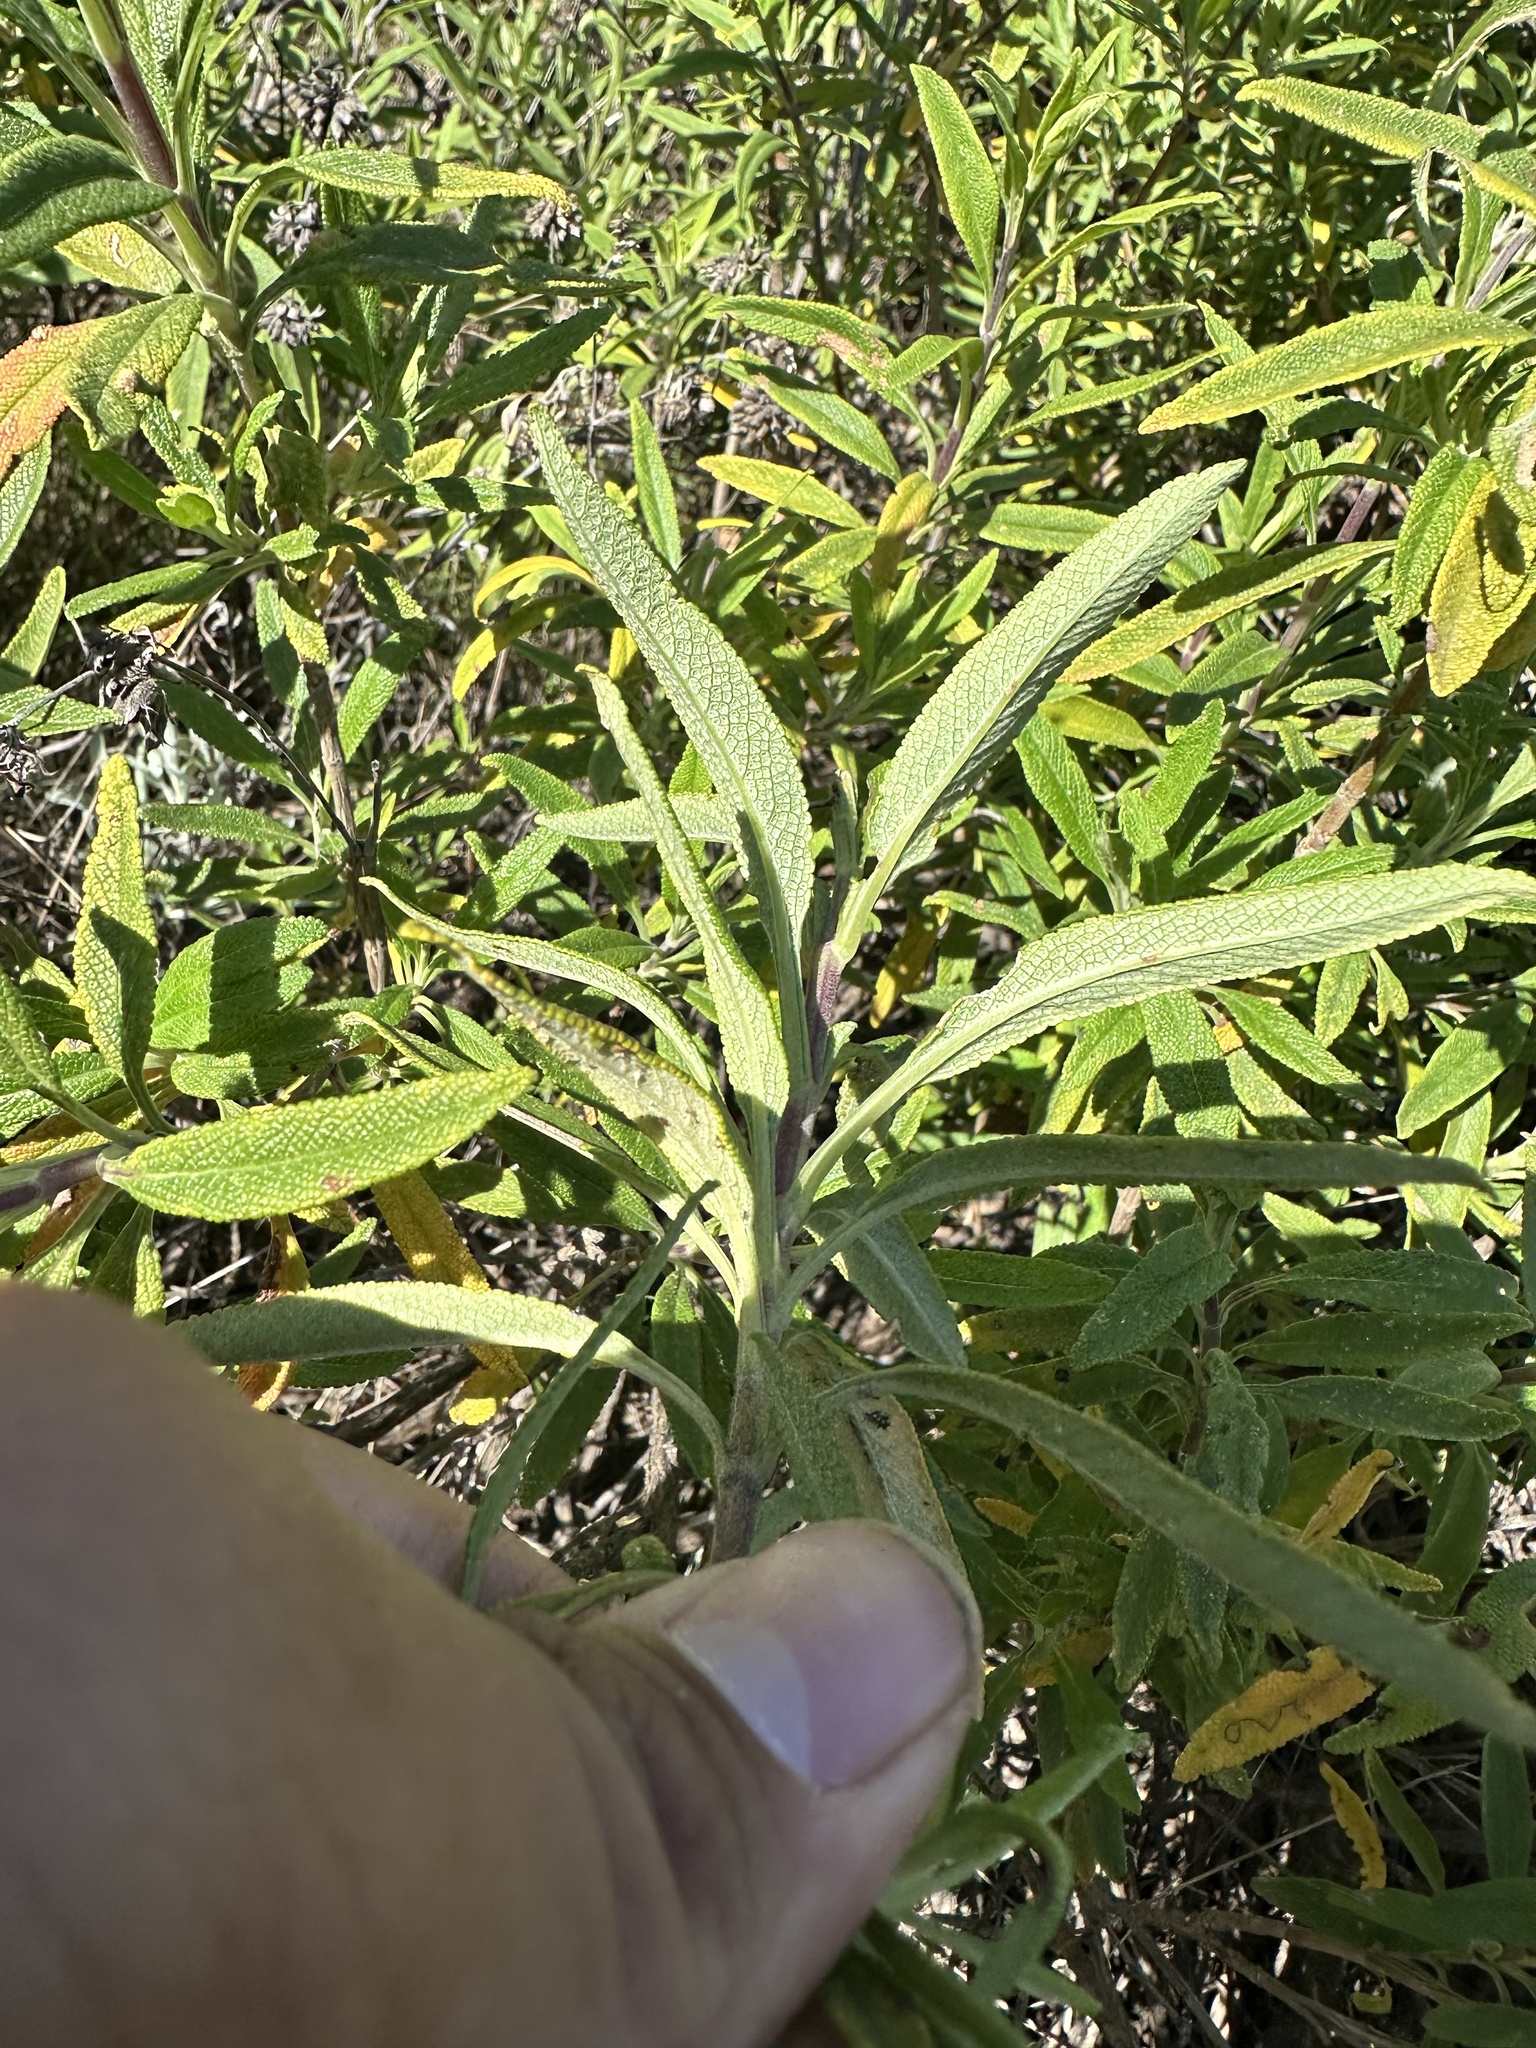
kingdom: Plantae
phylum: Tracheophyta
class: Magnoliopsida
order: Lamiales
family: Lamiaceae
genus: Salvia
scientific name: Salvia mellifera
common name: Black sage
